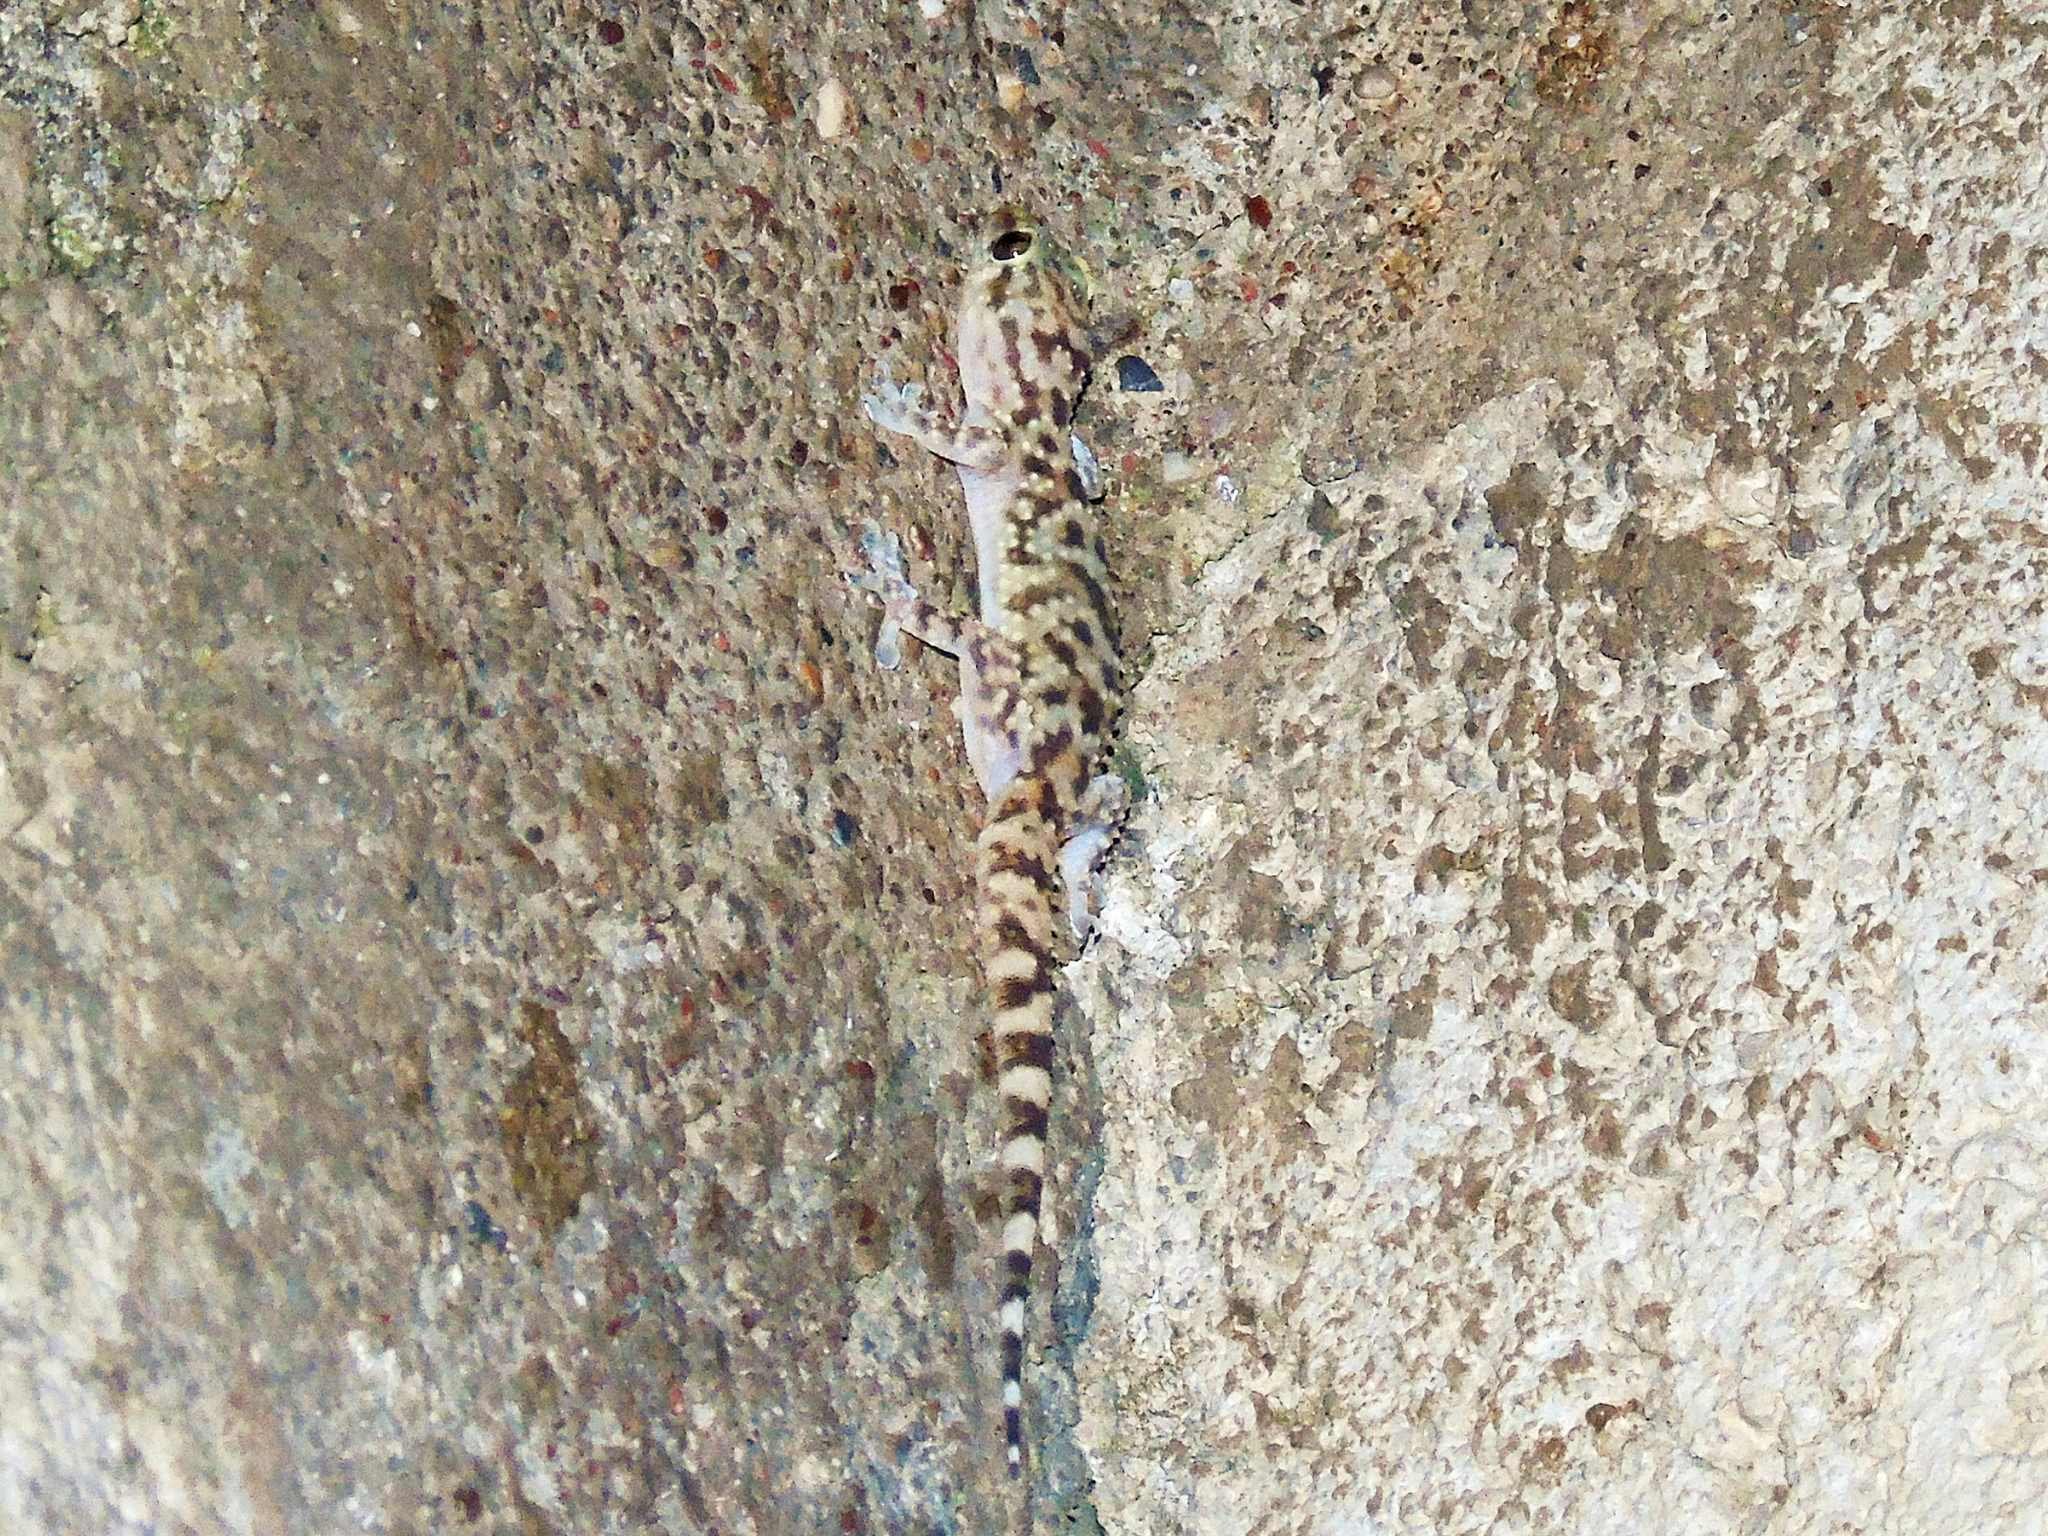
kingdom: Animalia
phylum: Chordata
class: Squamata
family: Gekkonidae
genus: Hemidactylus
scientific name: Hemidactylus turcicus
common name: Turkish gecko
